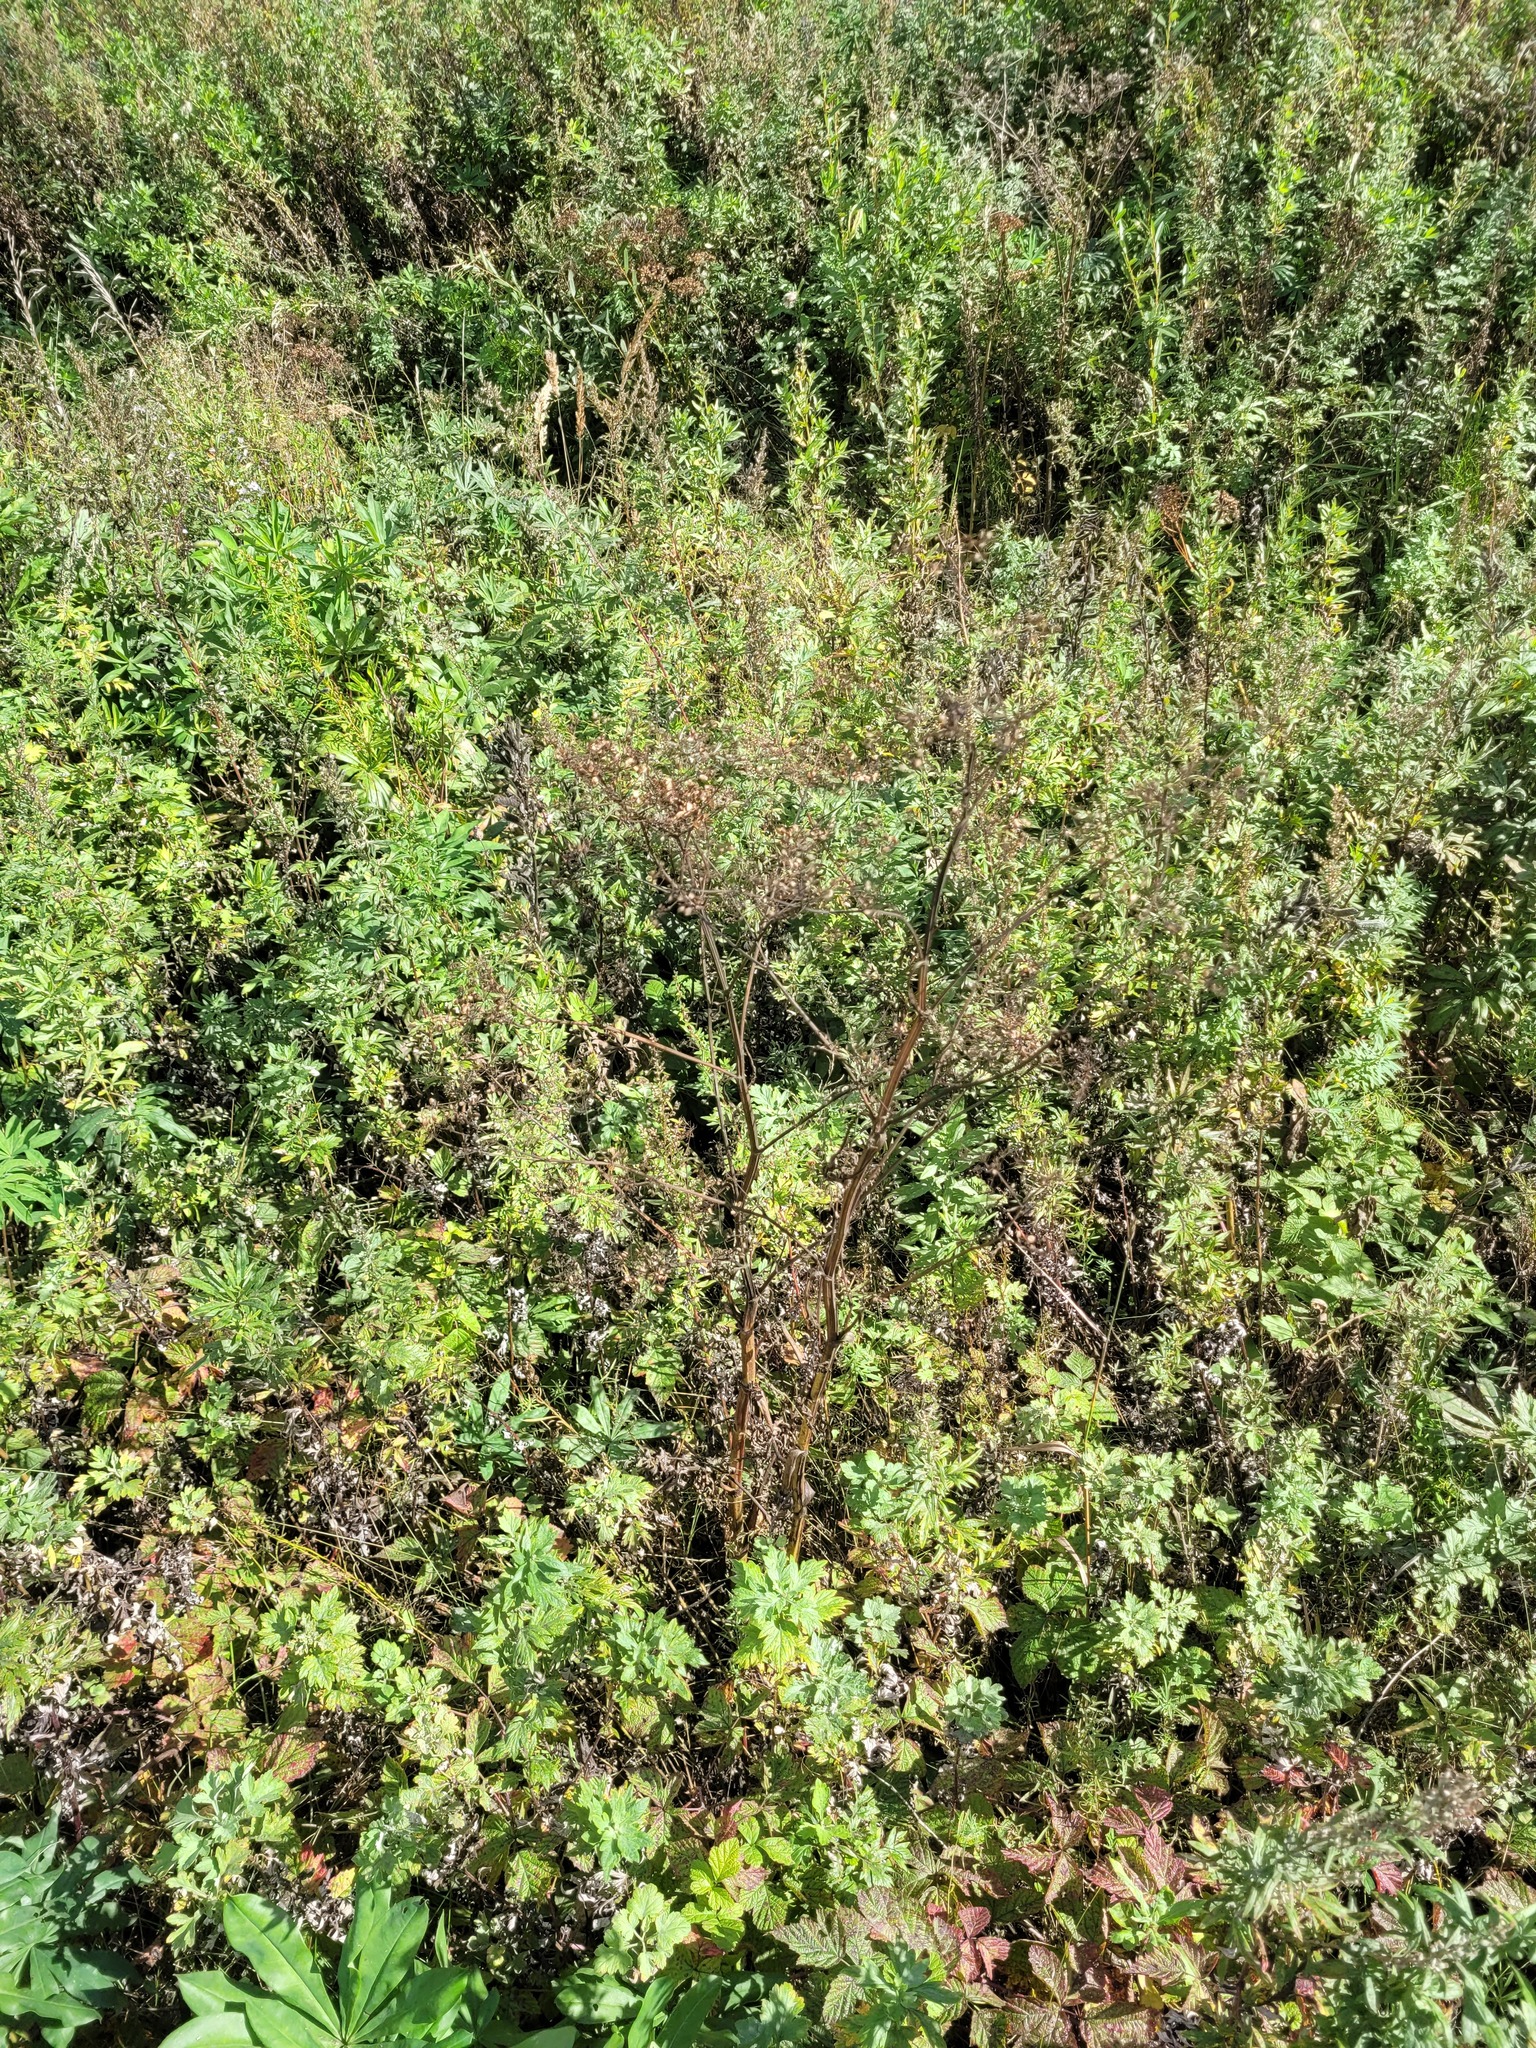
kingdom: Plantae
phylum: Tracheophyta
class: Magnoliopsida
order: Apiales
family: Apiaceae
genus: Pastinaca
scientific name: Pastinaca sativa
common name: Wild parsnip
